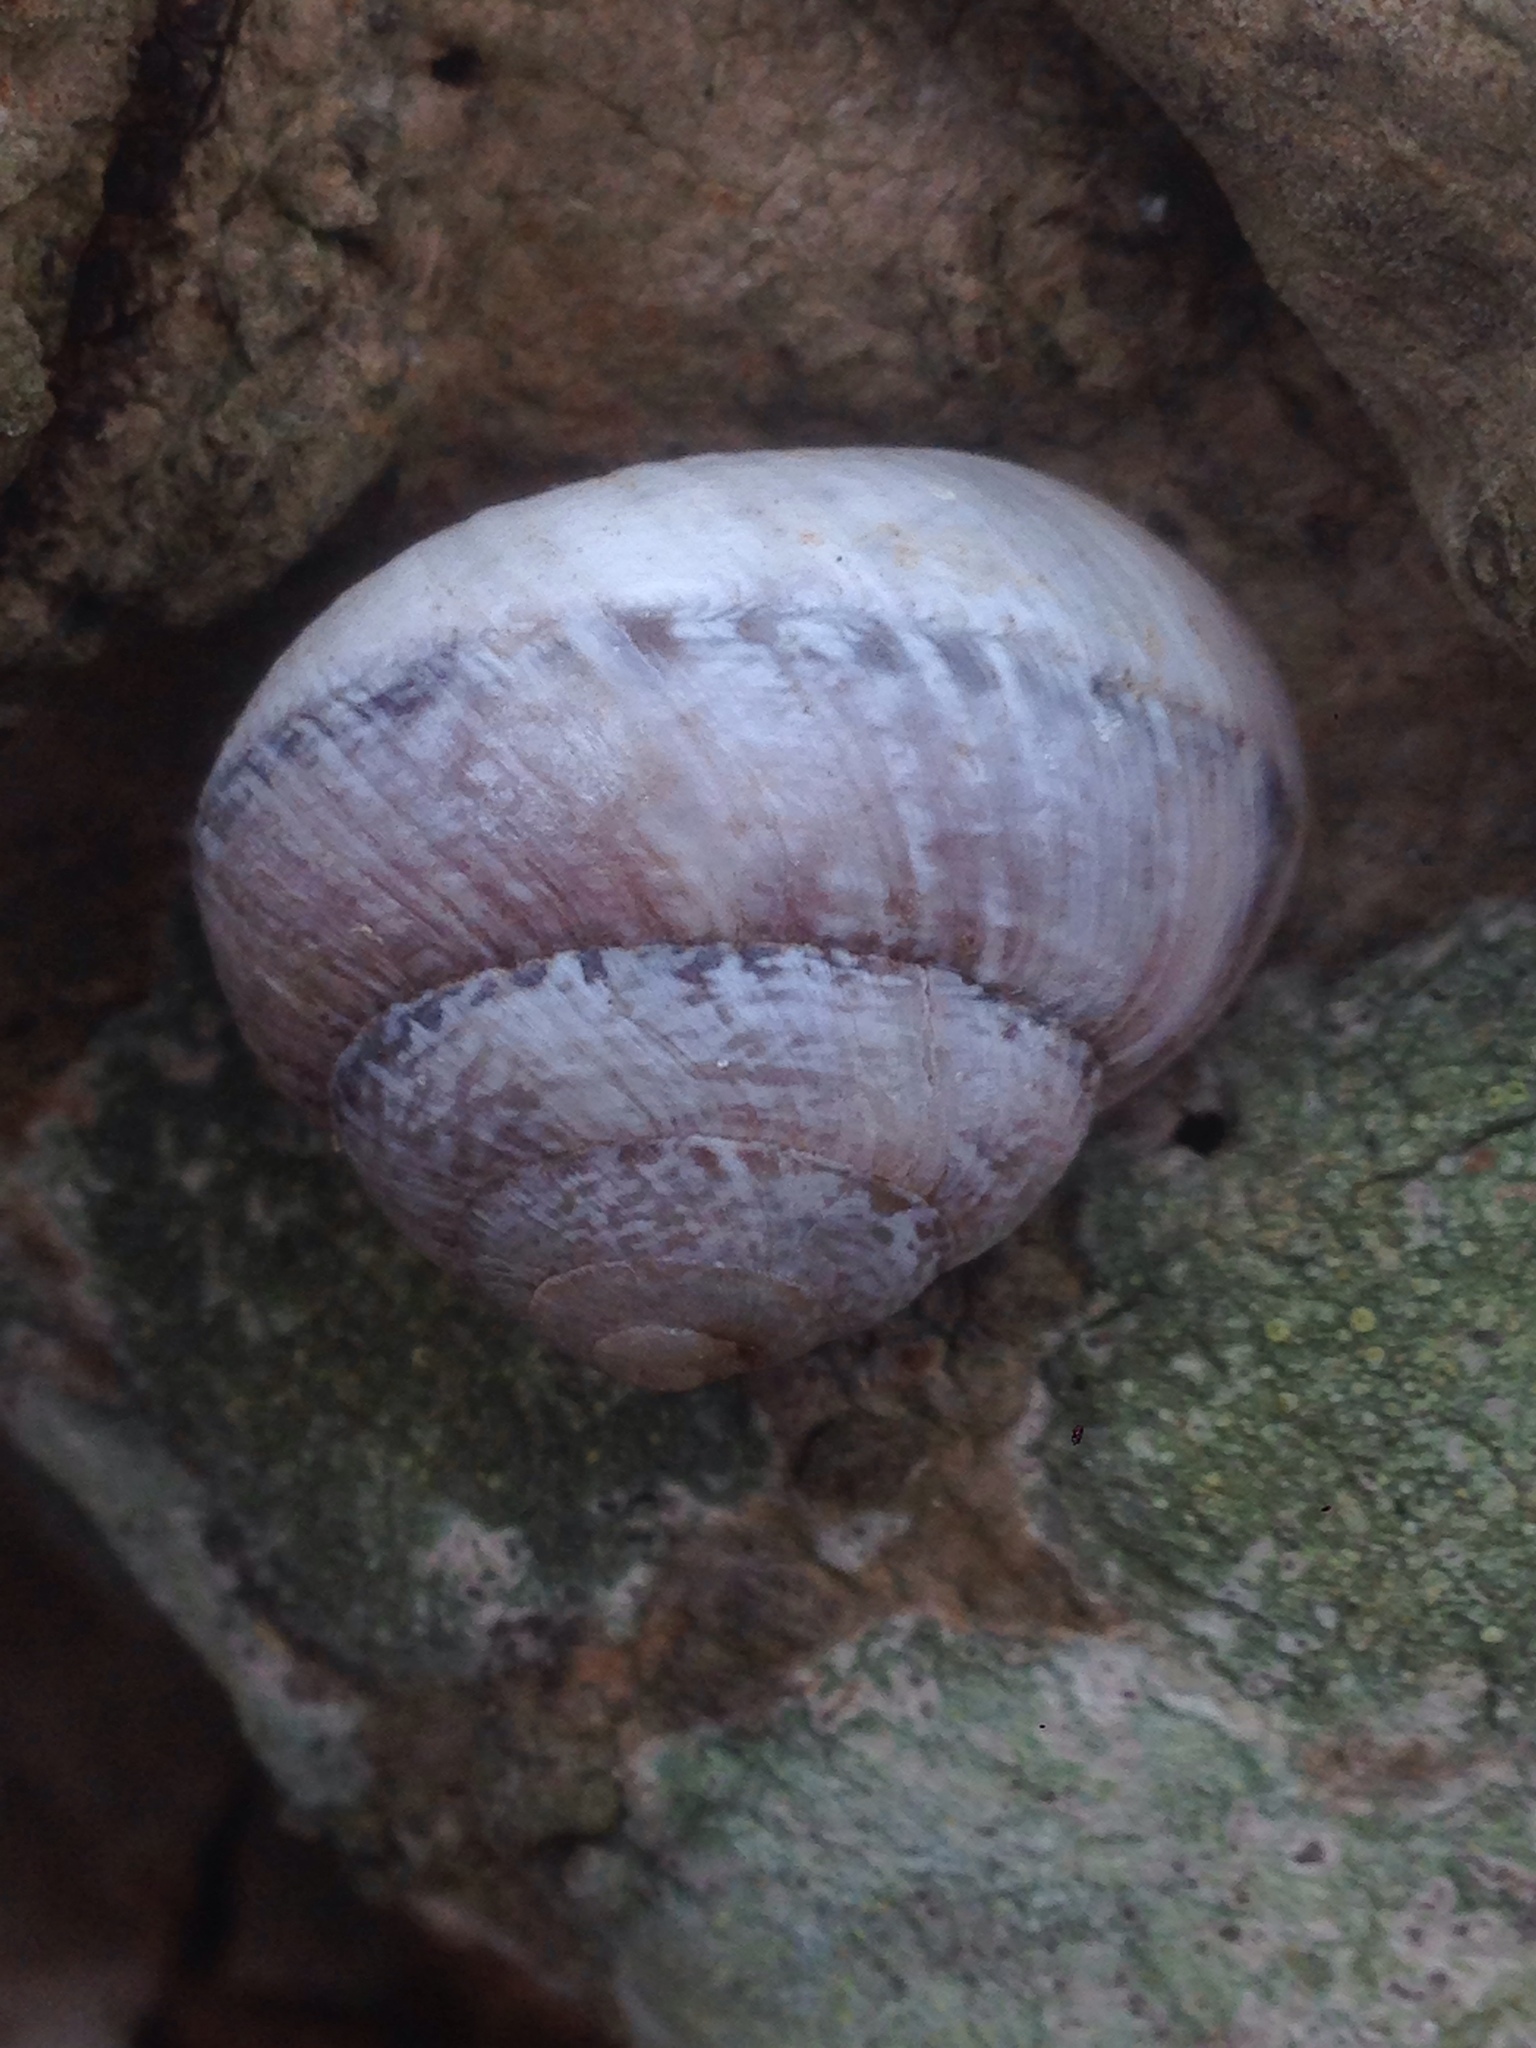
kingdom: Animalia
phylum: Mollusca
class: Gastropoda
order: Stylommatophora
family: Xanthonychidae
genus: Xerarionta
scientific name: Xerarionta tryoni
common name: Bicolor cactus snail
